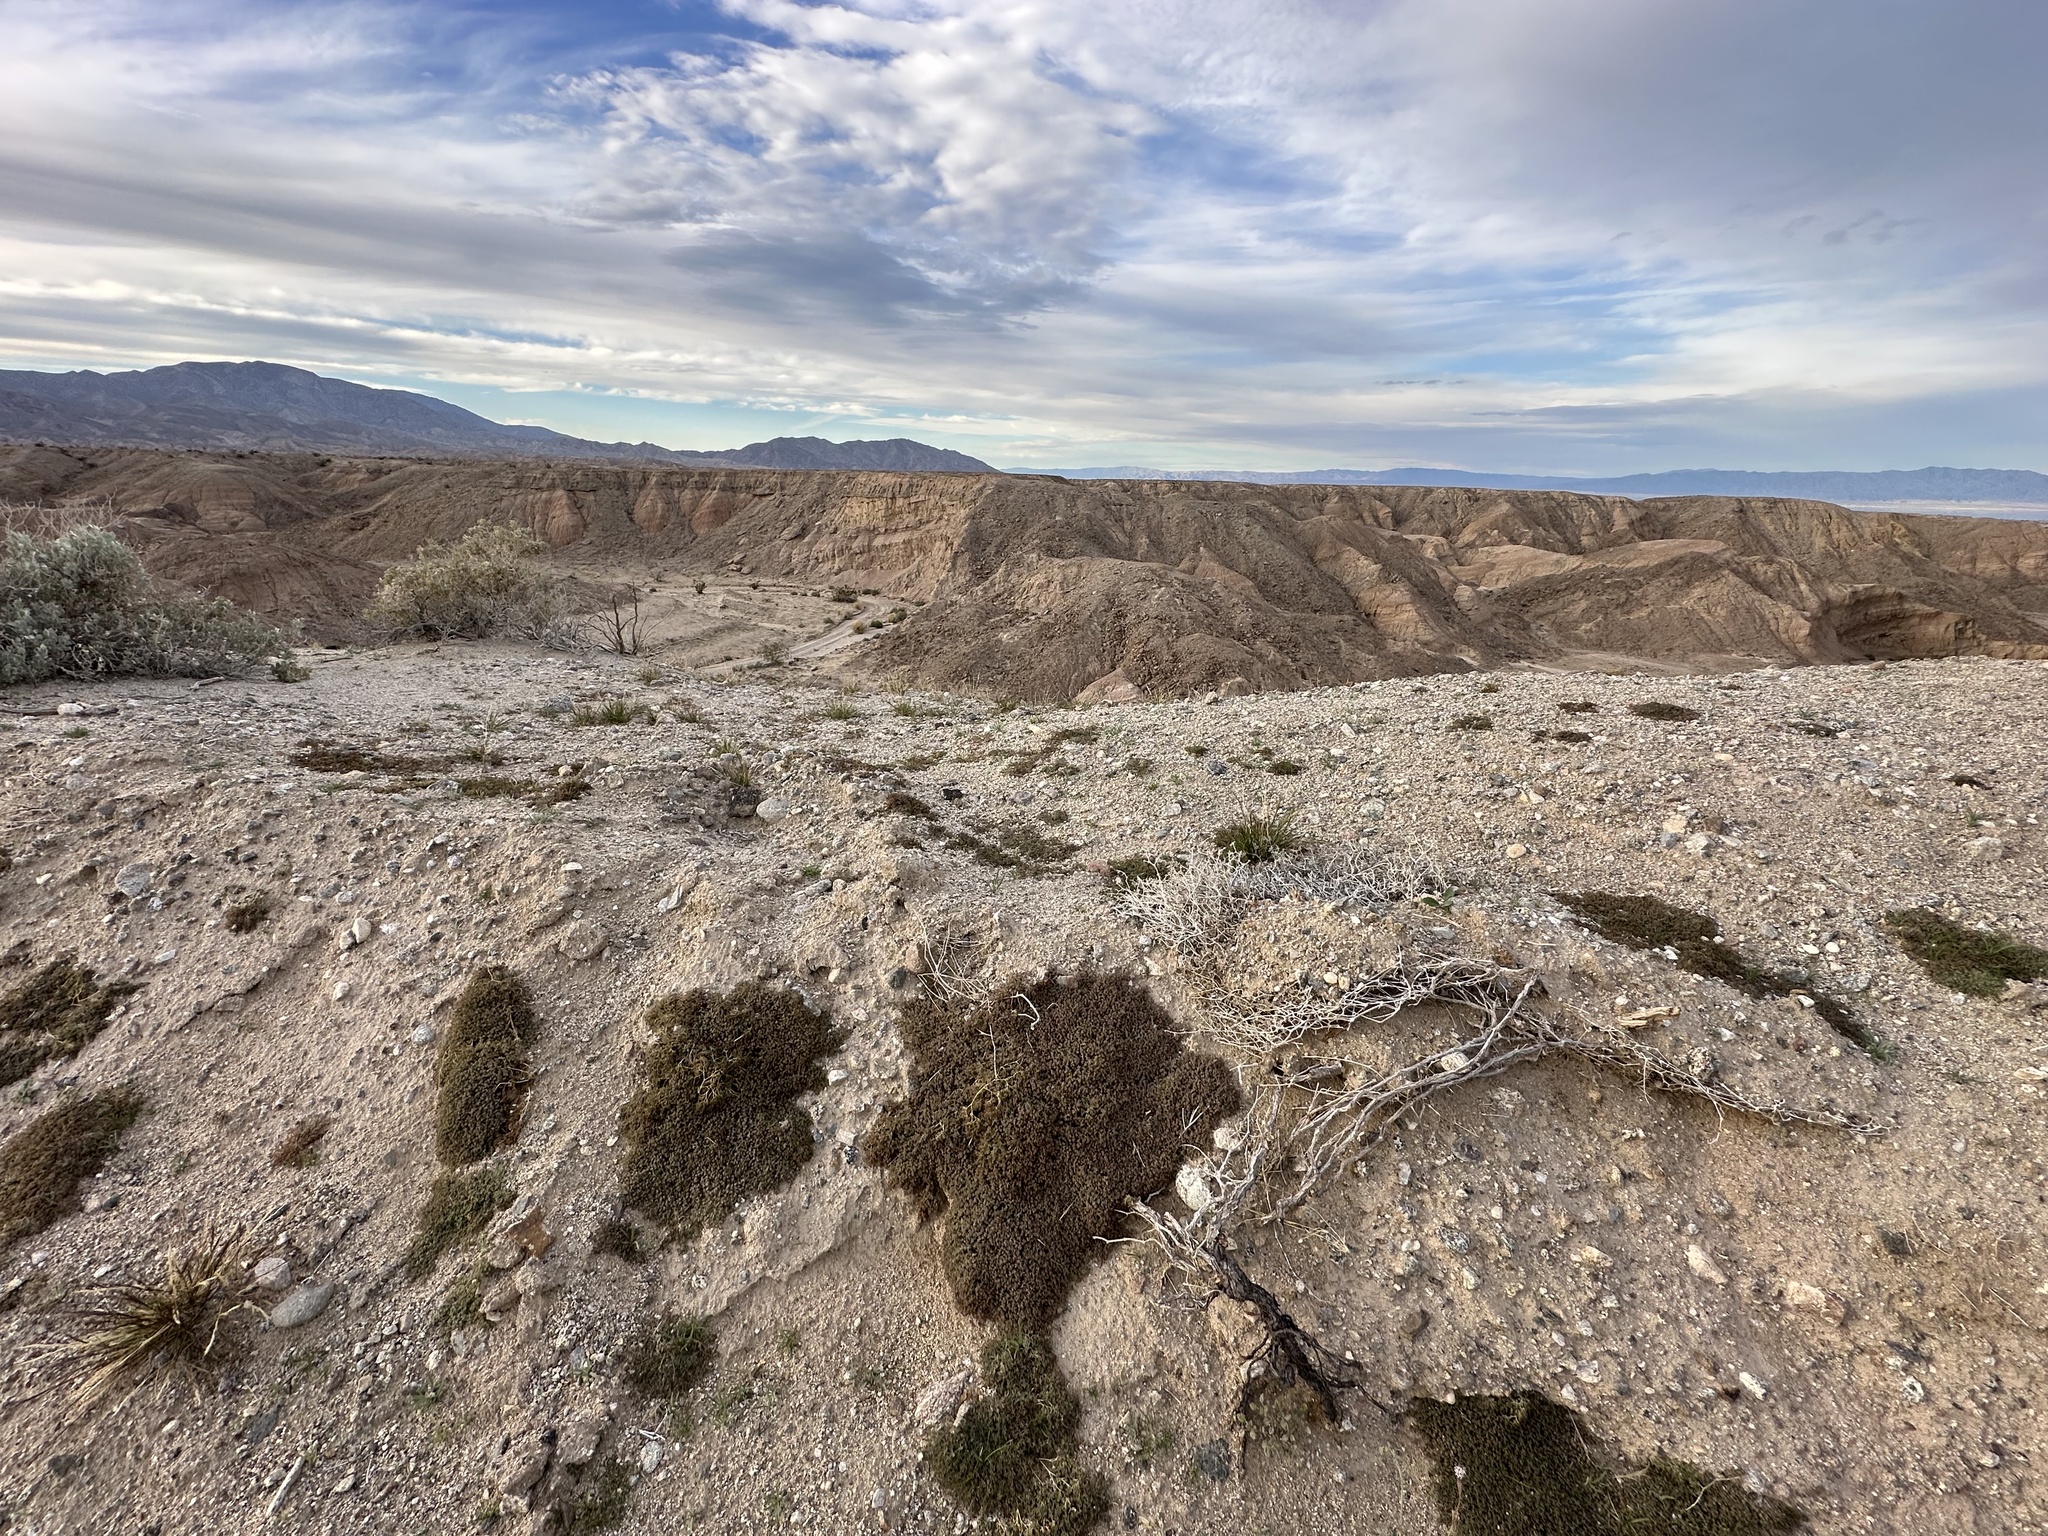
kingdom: Plantae
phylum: Tracheophyta
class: Magnoliopsida
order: Malpighiales
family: Euphorbiaceae
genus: Euphorbia
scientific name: Euphorbia polycarpa
